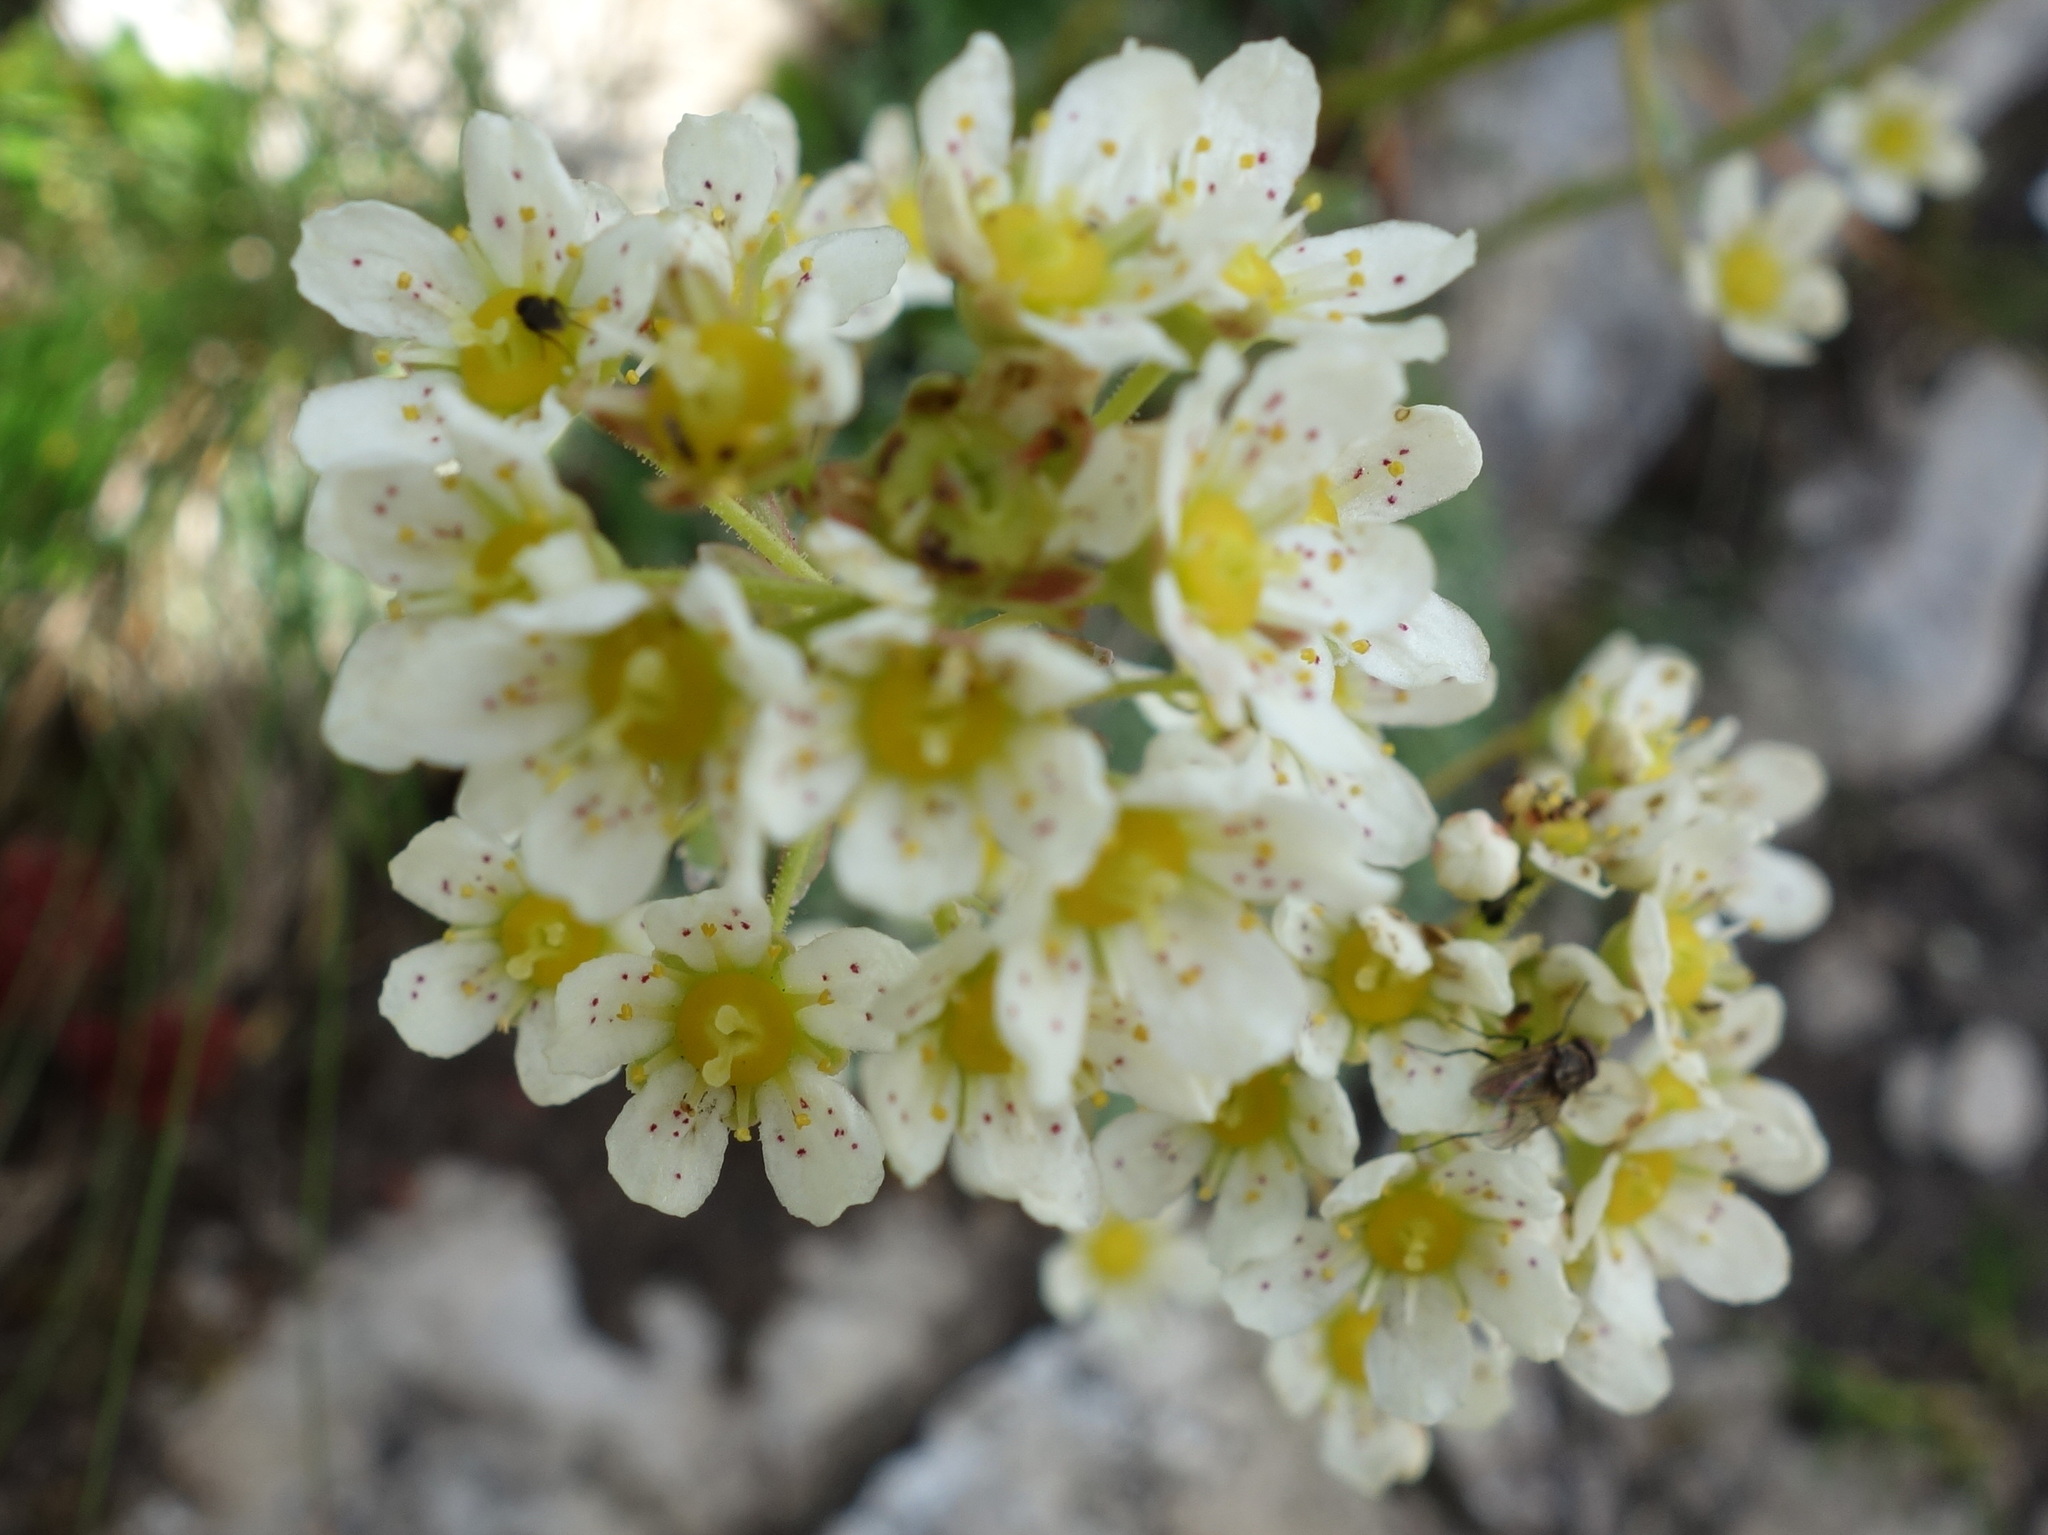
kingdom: Plantae
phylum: Tracheophyta
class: Magnoliopsida
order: Saxifragales
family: Saxifragaceae
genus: Saxifraga
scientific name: Saxifraga paniculata
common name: Livelong saxifrage
